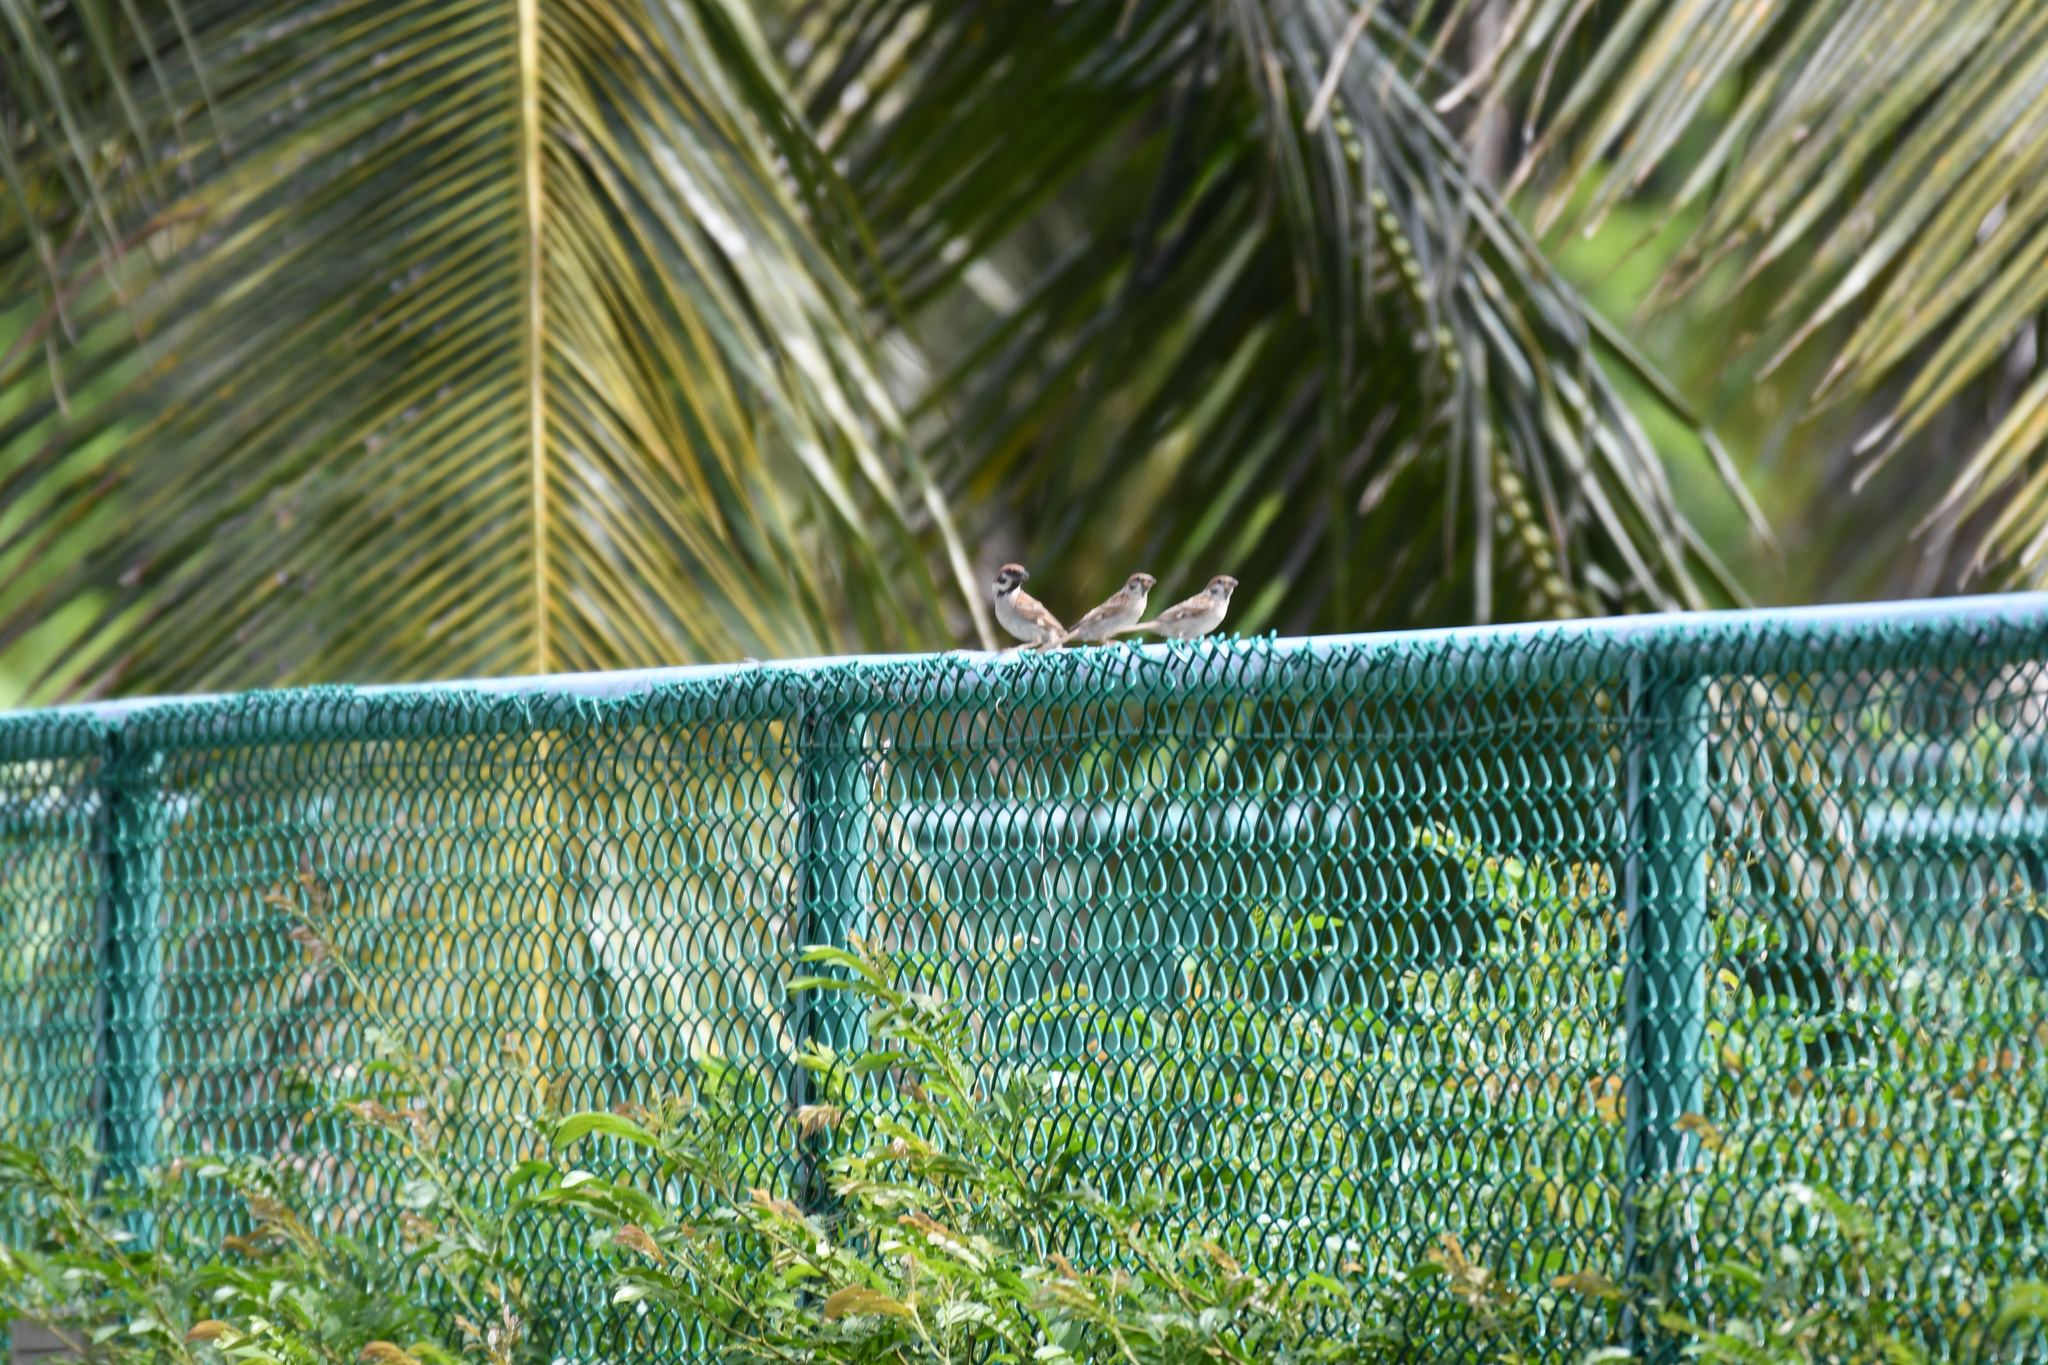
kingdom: Animalia
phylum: Chordata
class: Aves
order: Passeriformes
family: Passeridae
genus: Passer
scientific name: Passer montanus
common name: Eurasian tree sparrow
